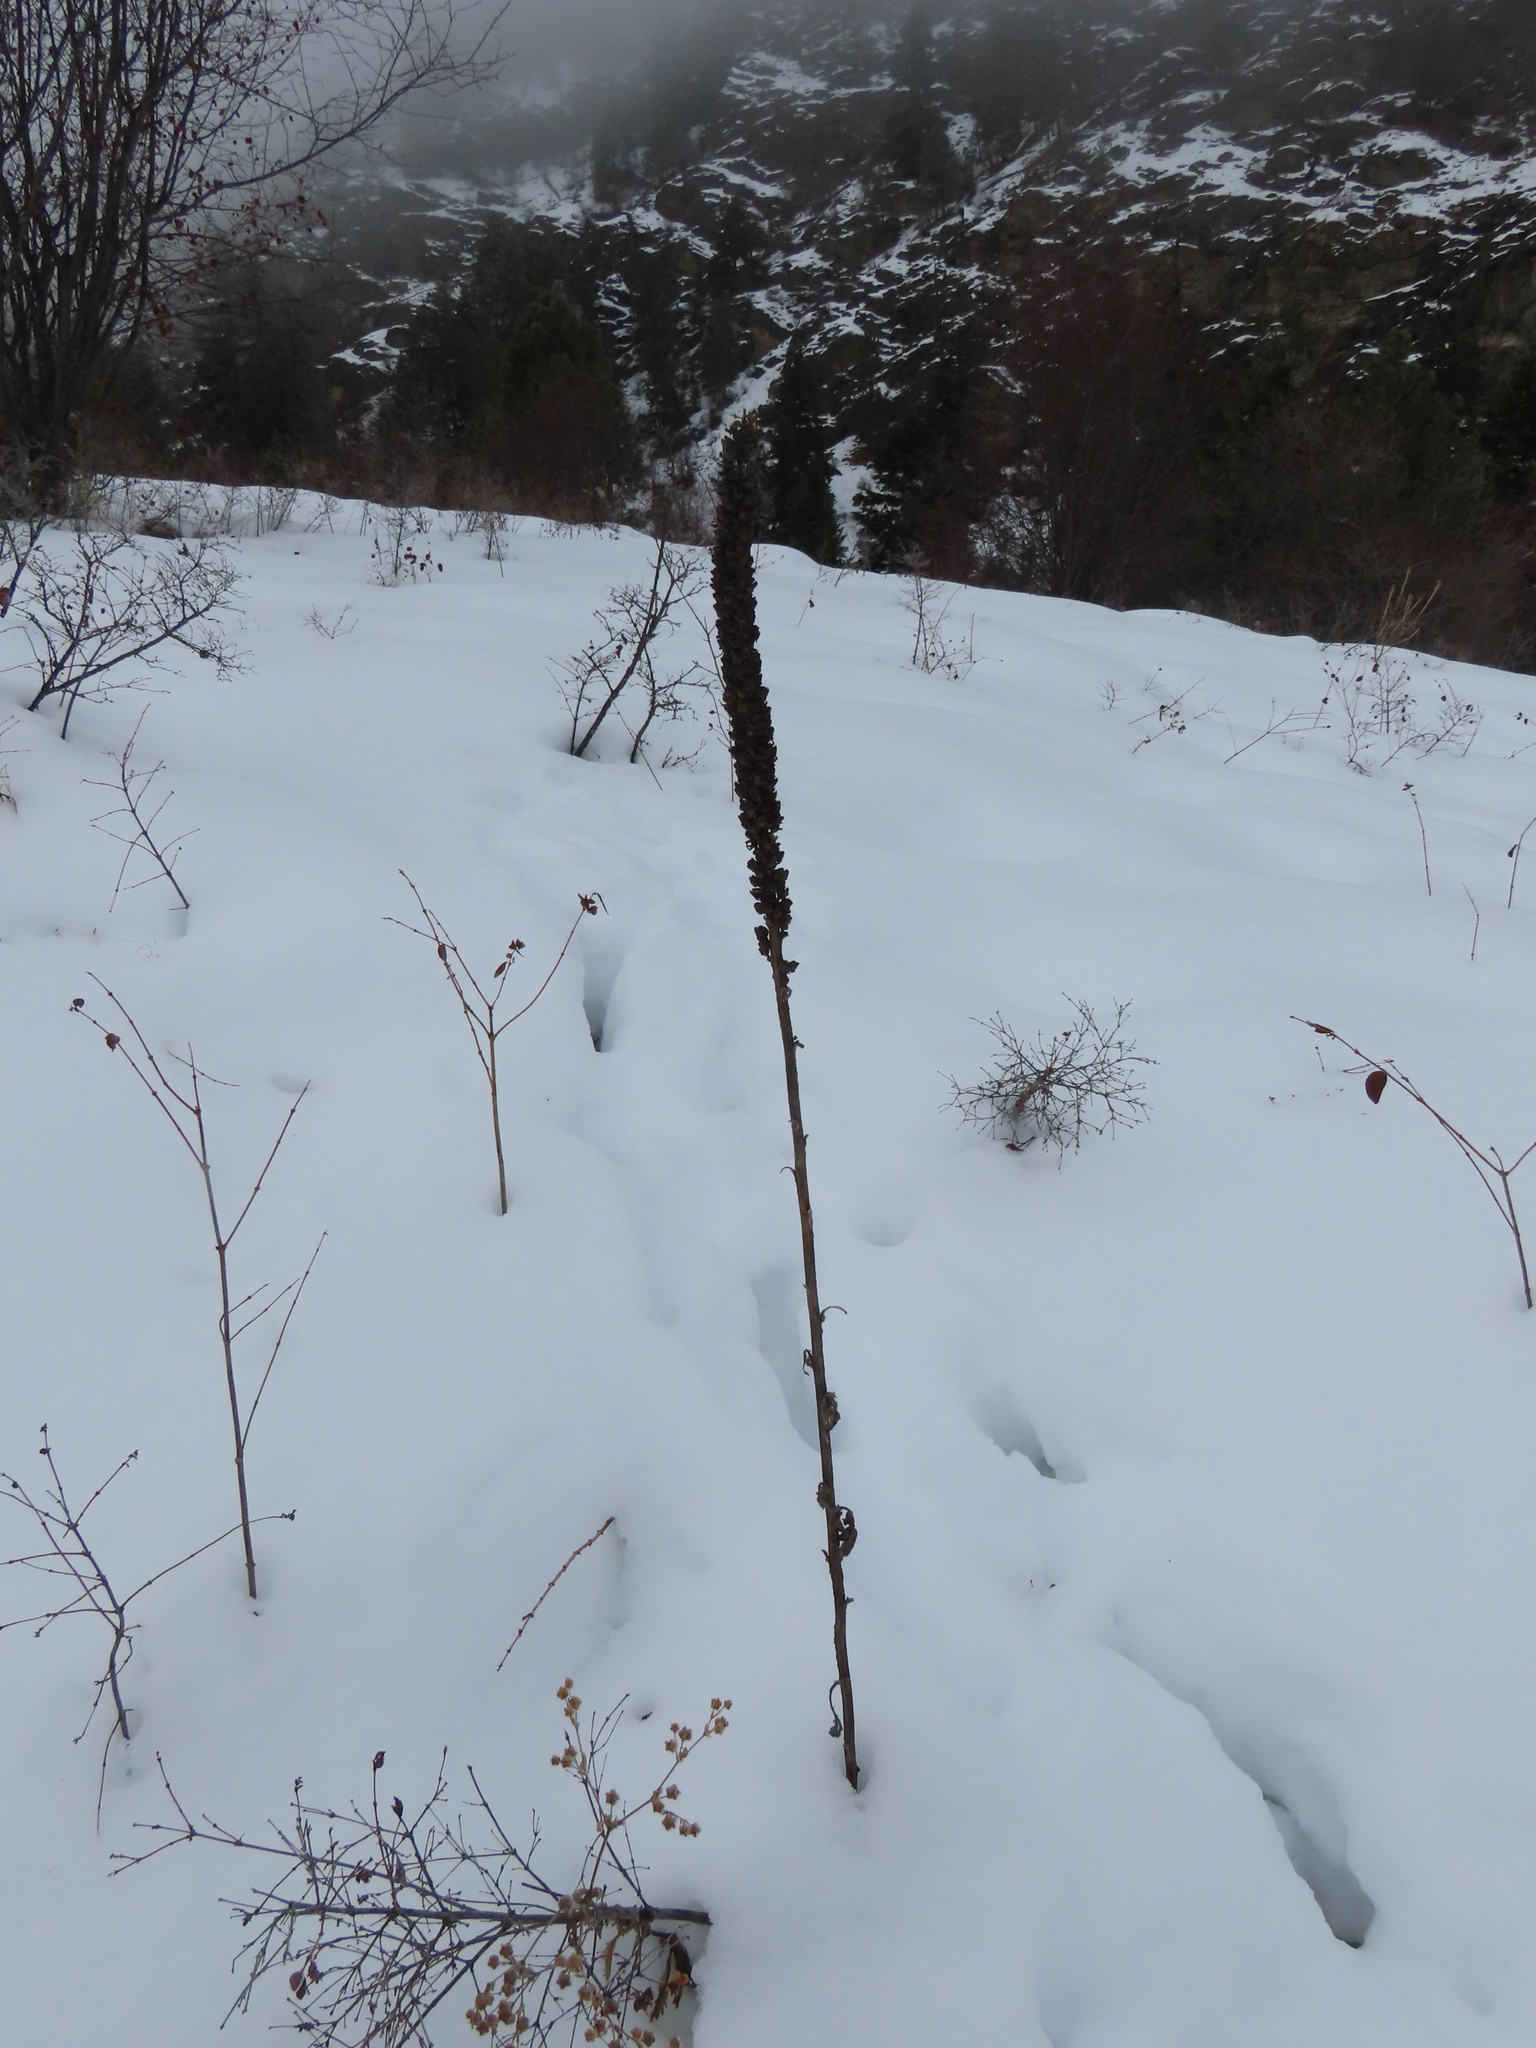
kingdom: Plantae
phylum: Tracheophyta
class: Magnoliopsida
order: Lamiales
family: Scrophulariaceae
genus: Verbascum
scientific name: Verbascum thapsus
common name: Common mullein
